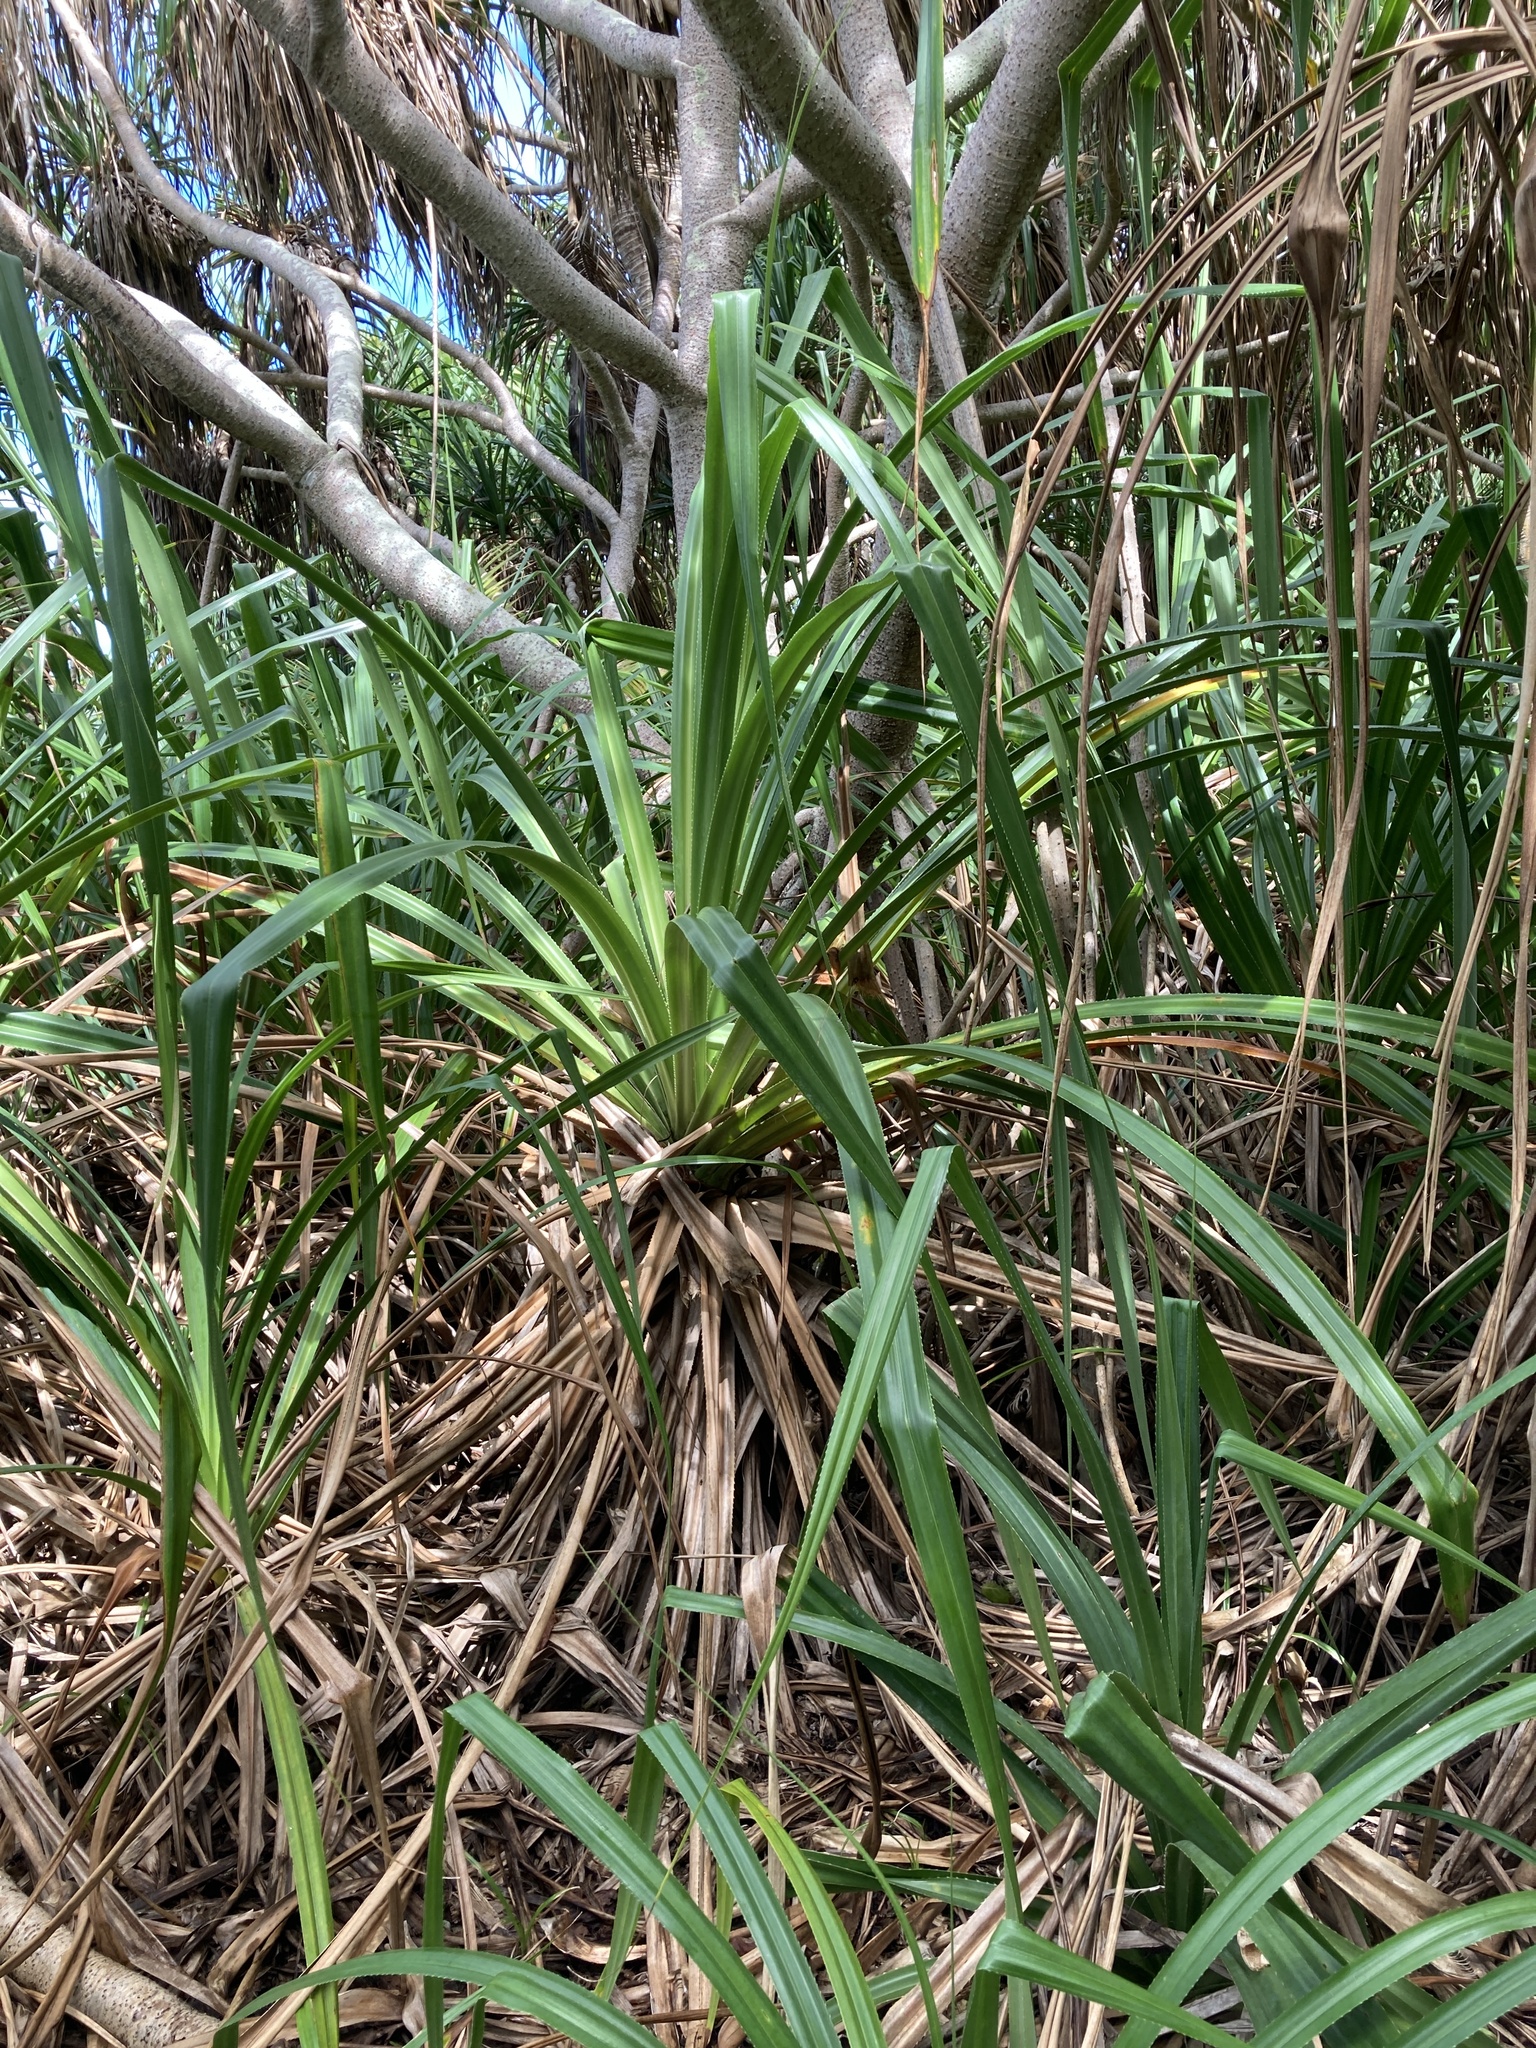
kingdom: Plantae
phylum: Tracheophyta
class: Liliopsida
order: Pandanales
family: Pandanaceae
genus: Pandanus
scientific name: Pandanus tectorius
